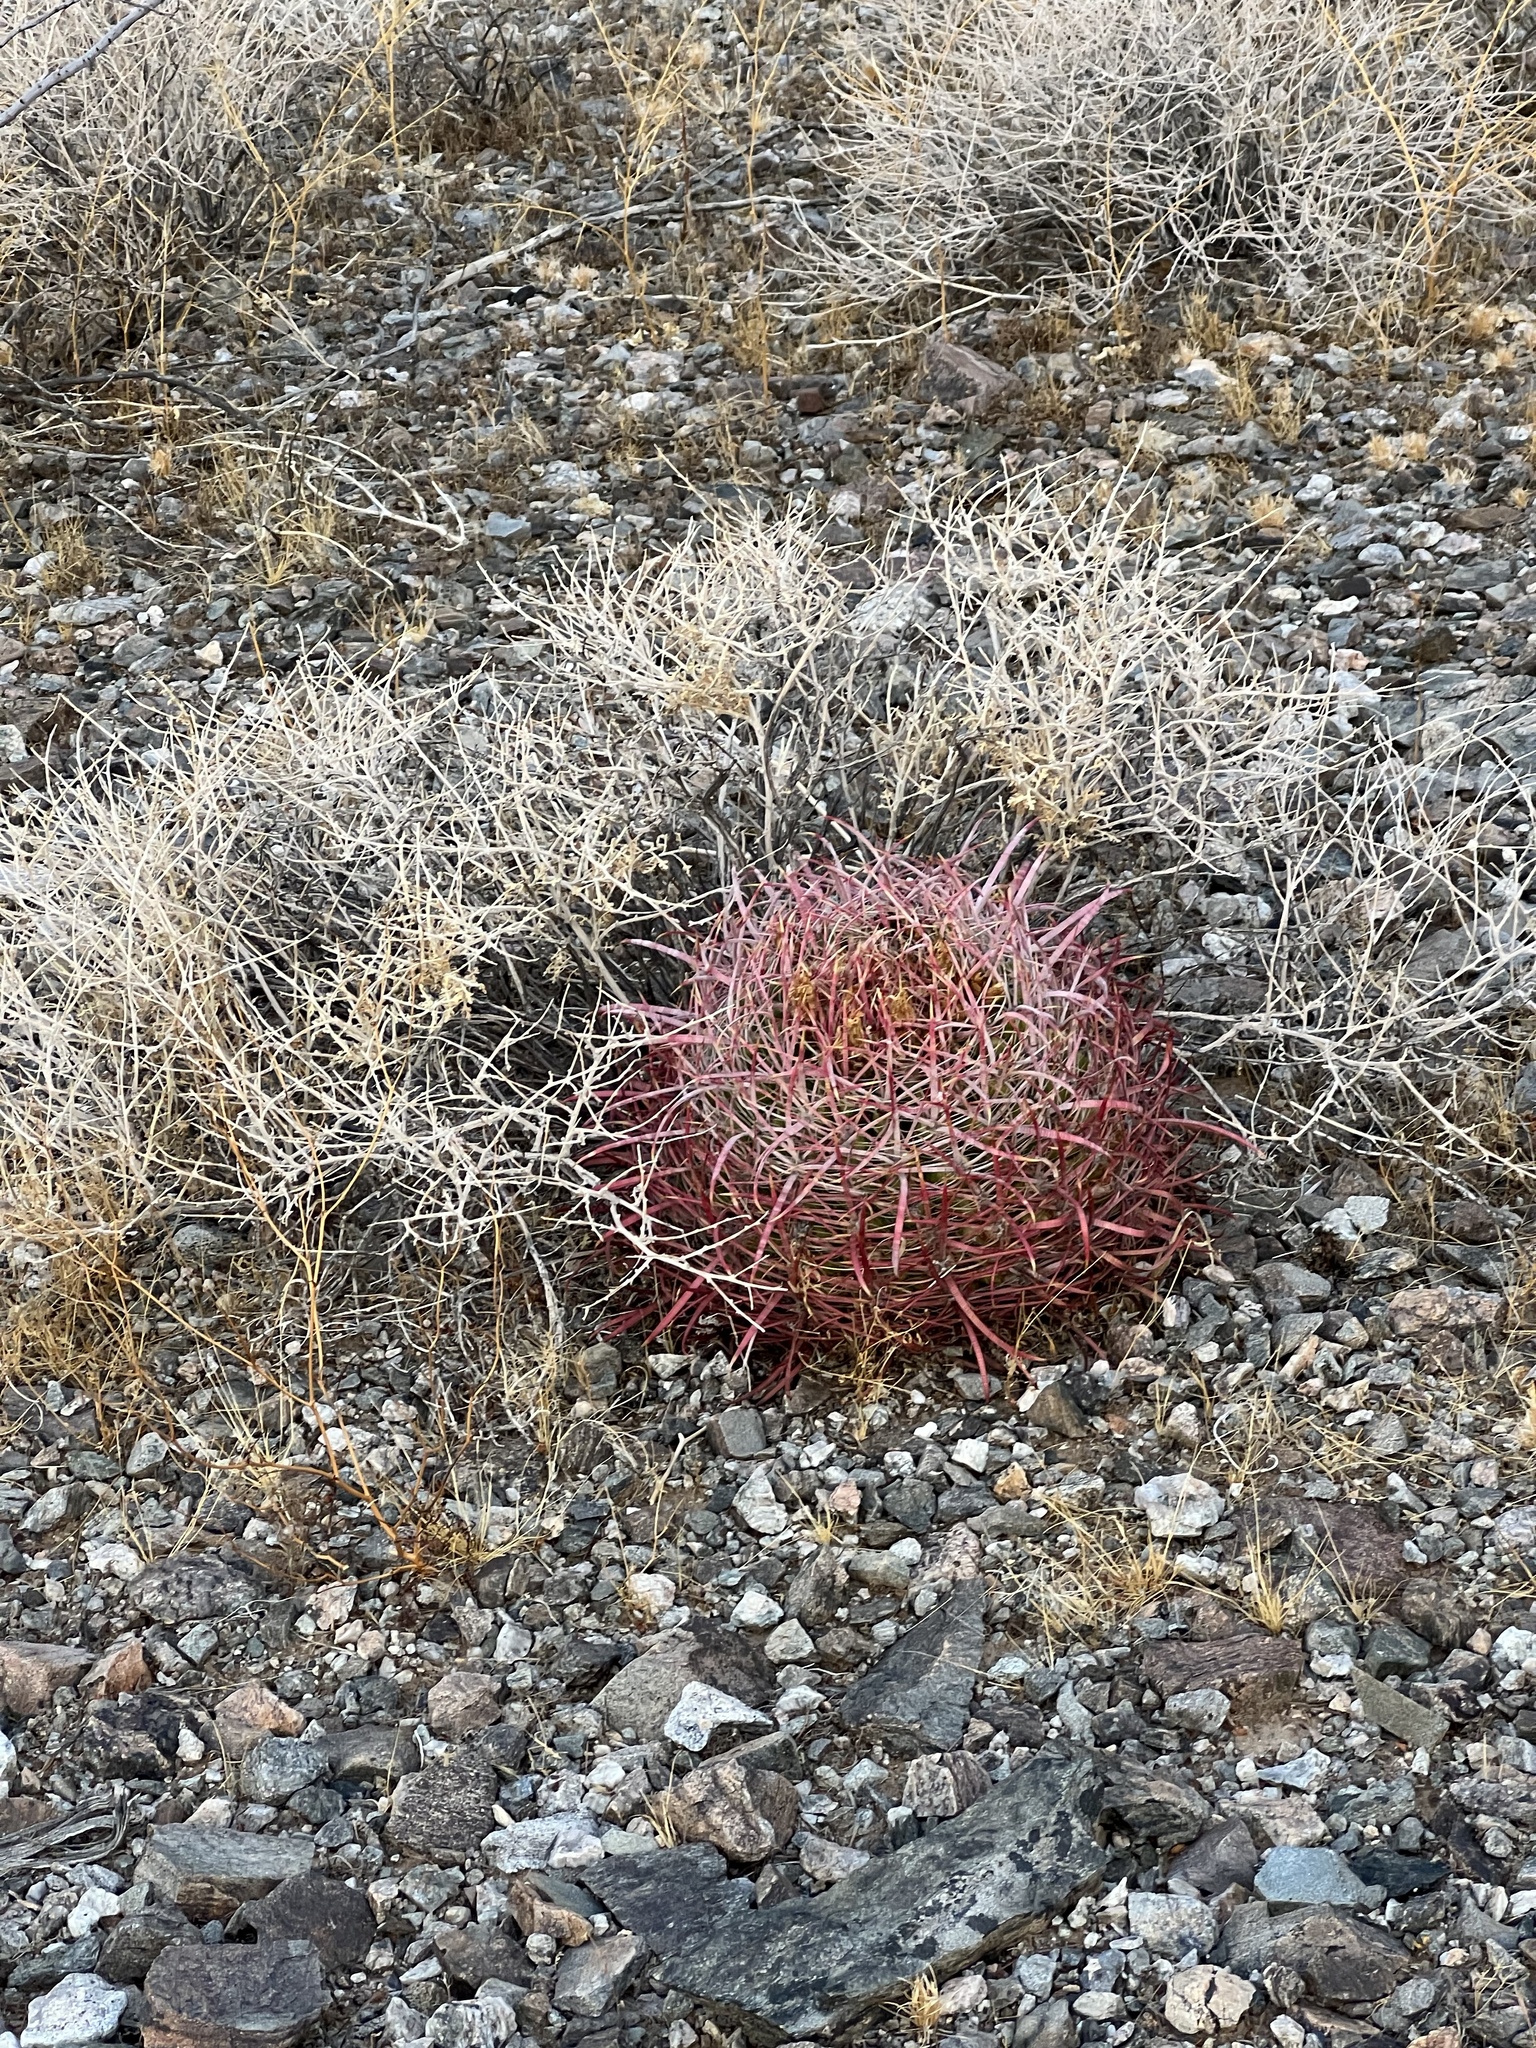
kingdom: Plantae
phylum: Tracheophyta
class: Magnoliopsida
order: Caryophyllales
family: Cactaceae
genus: Ferocactus
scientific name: Ferocactus cylindraceus
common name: California barrel cactus
